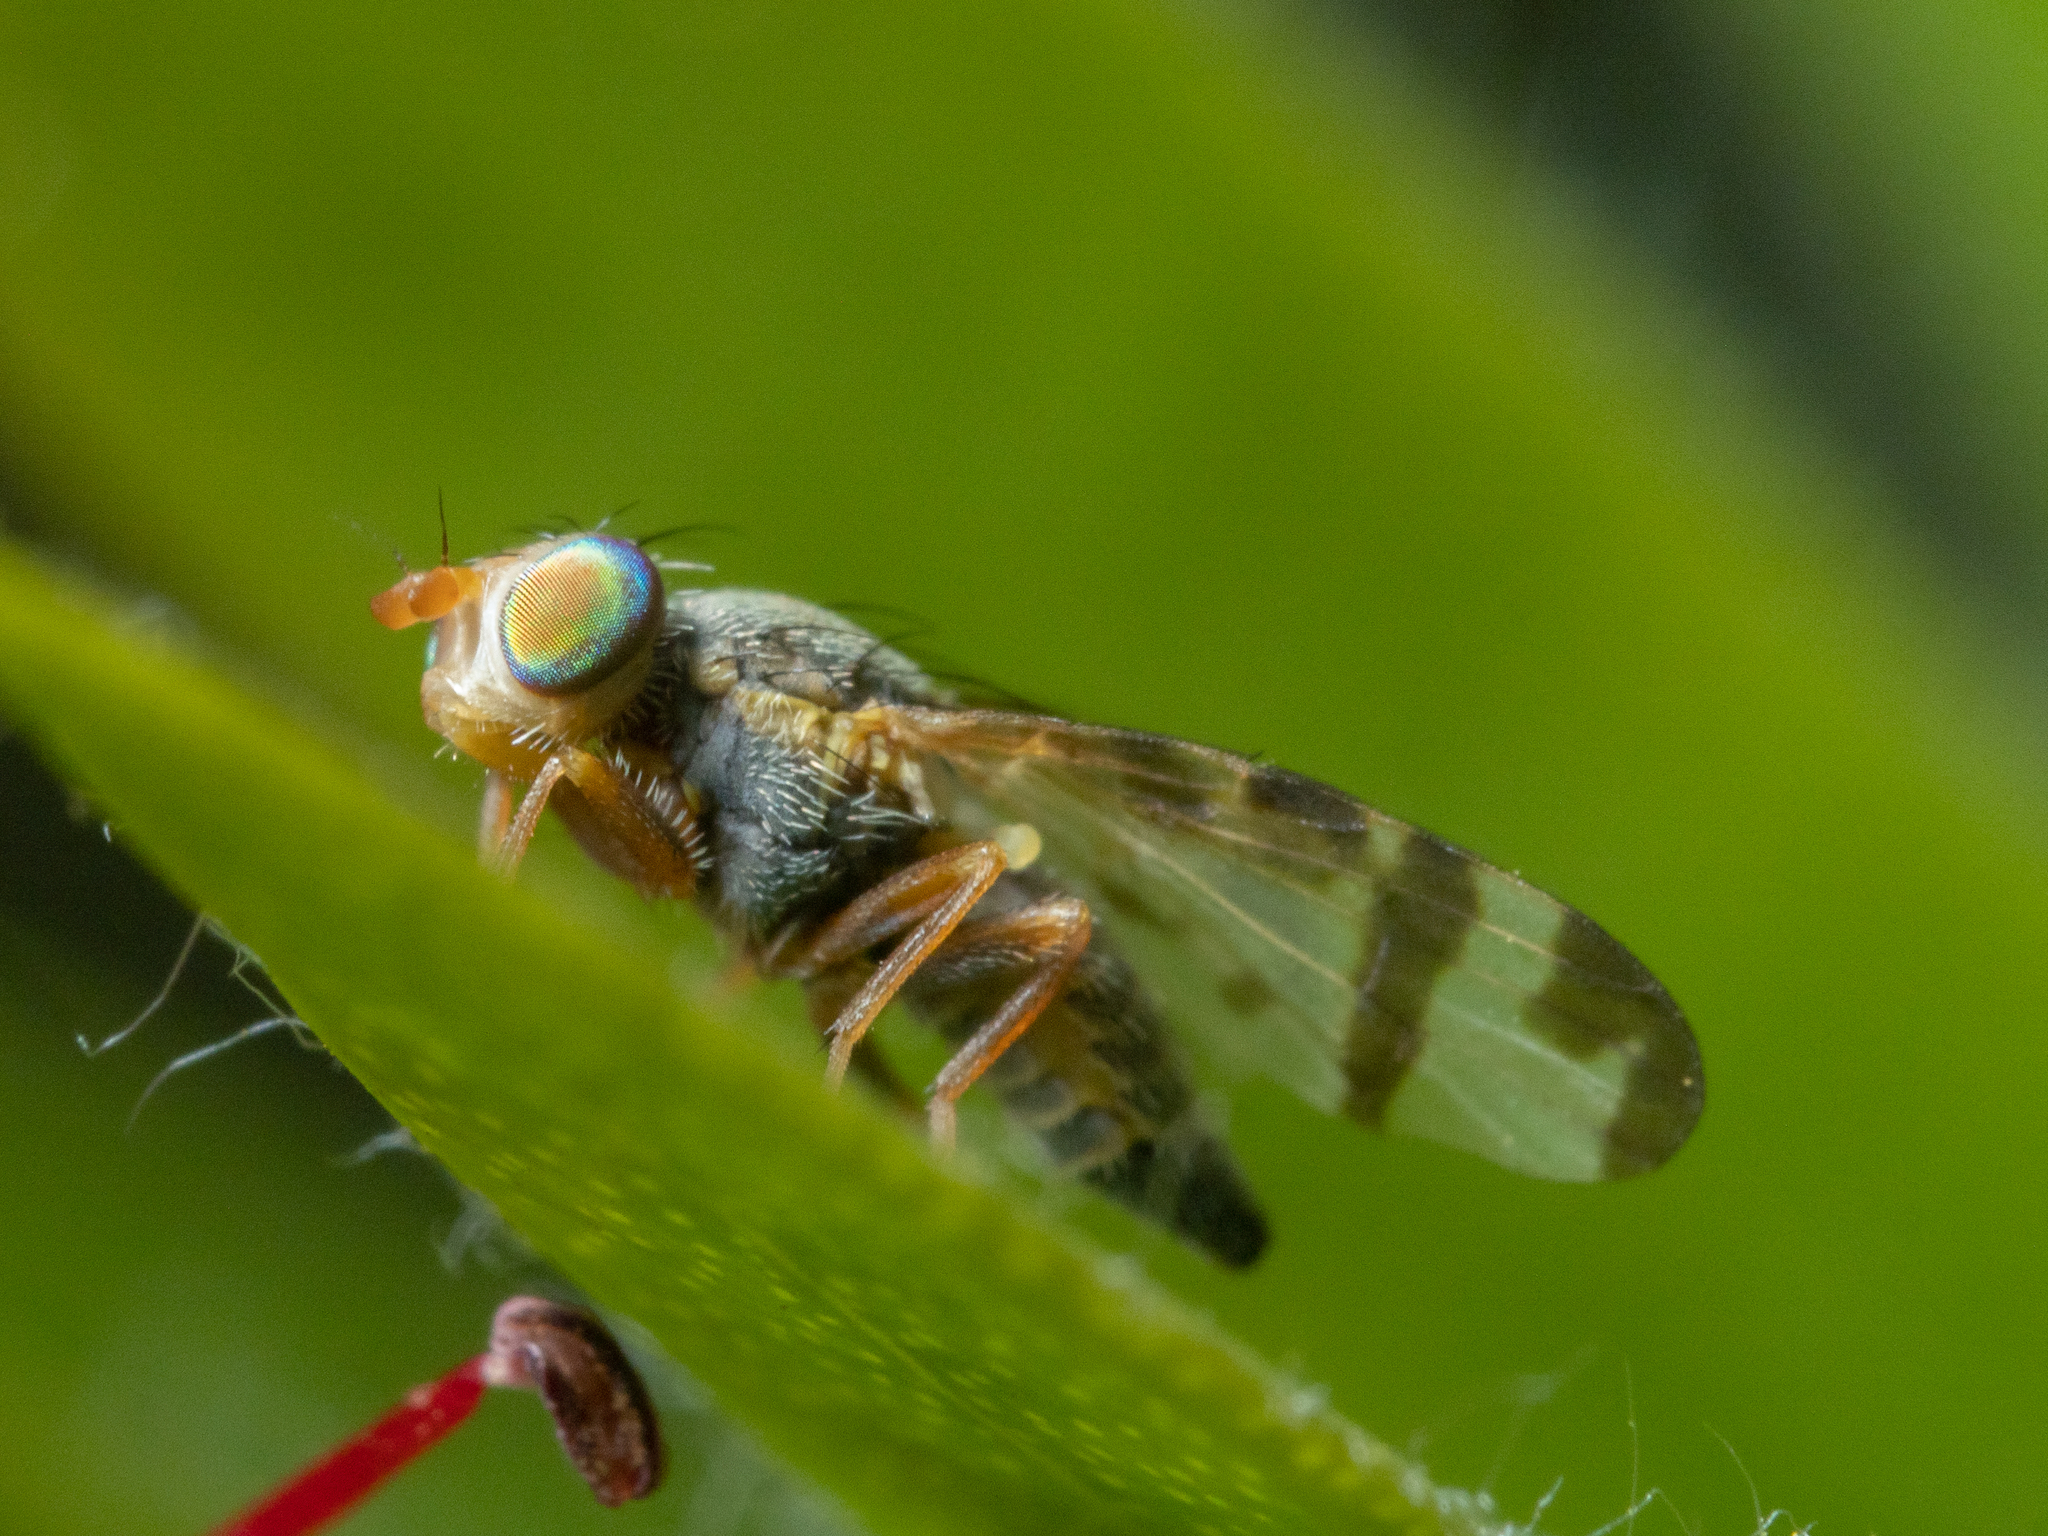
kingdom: Animalia
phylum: Arthropoda
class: Insecta
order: Diptera
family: Tephritidae
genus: Sphenella
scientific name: Sphenella ruficeps
